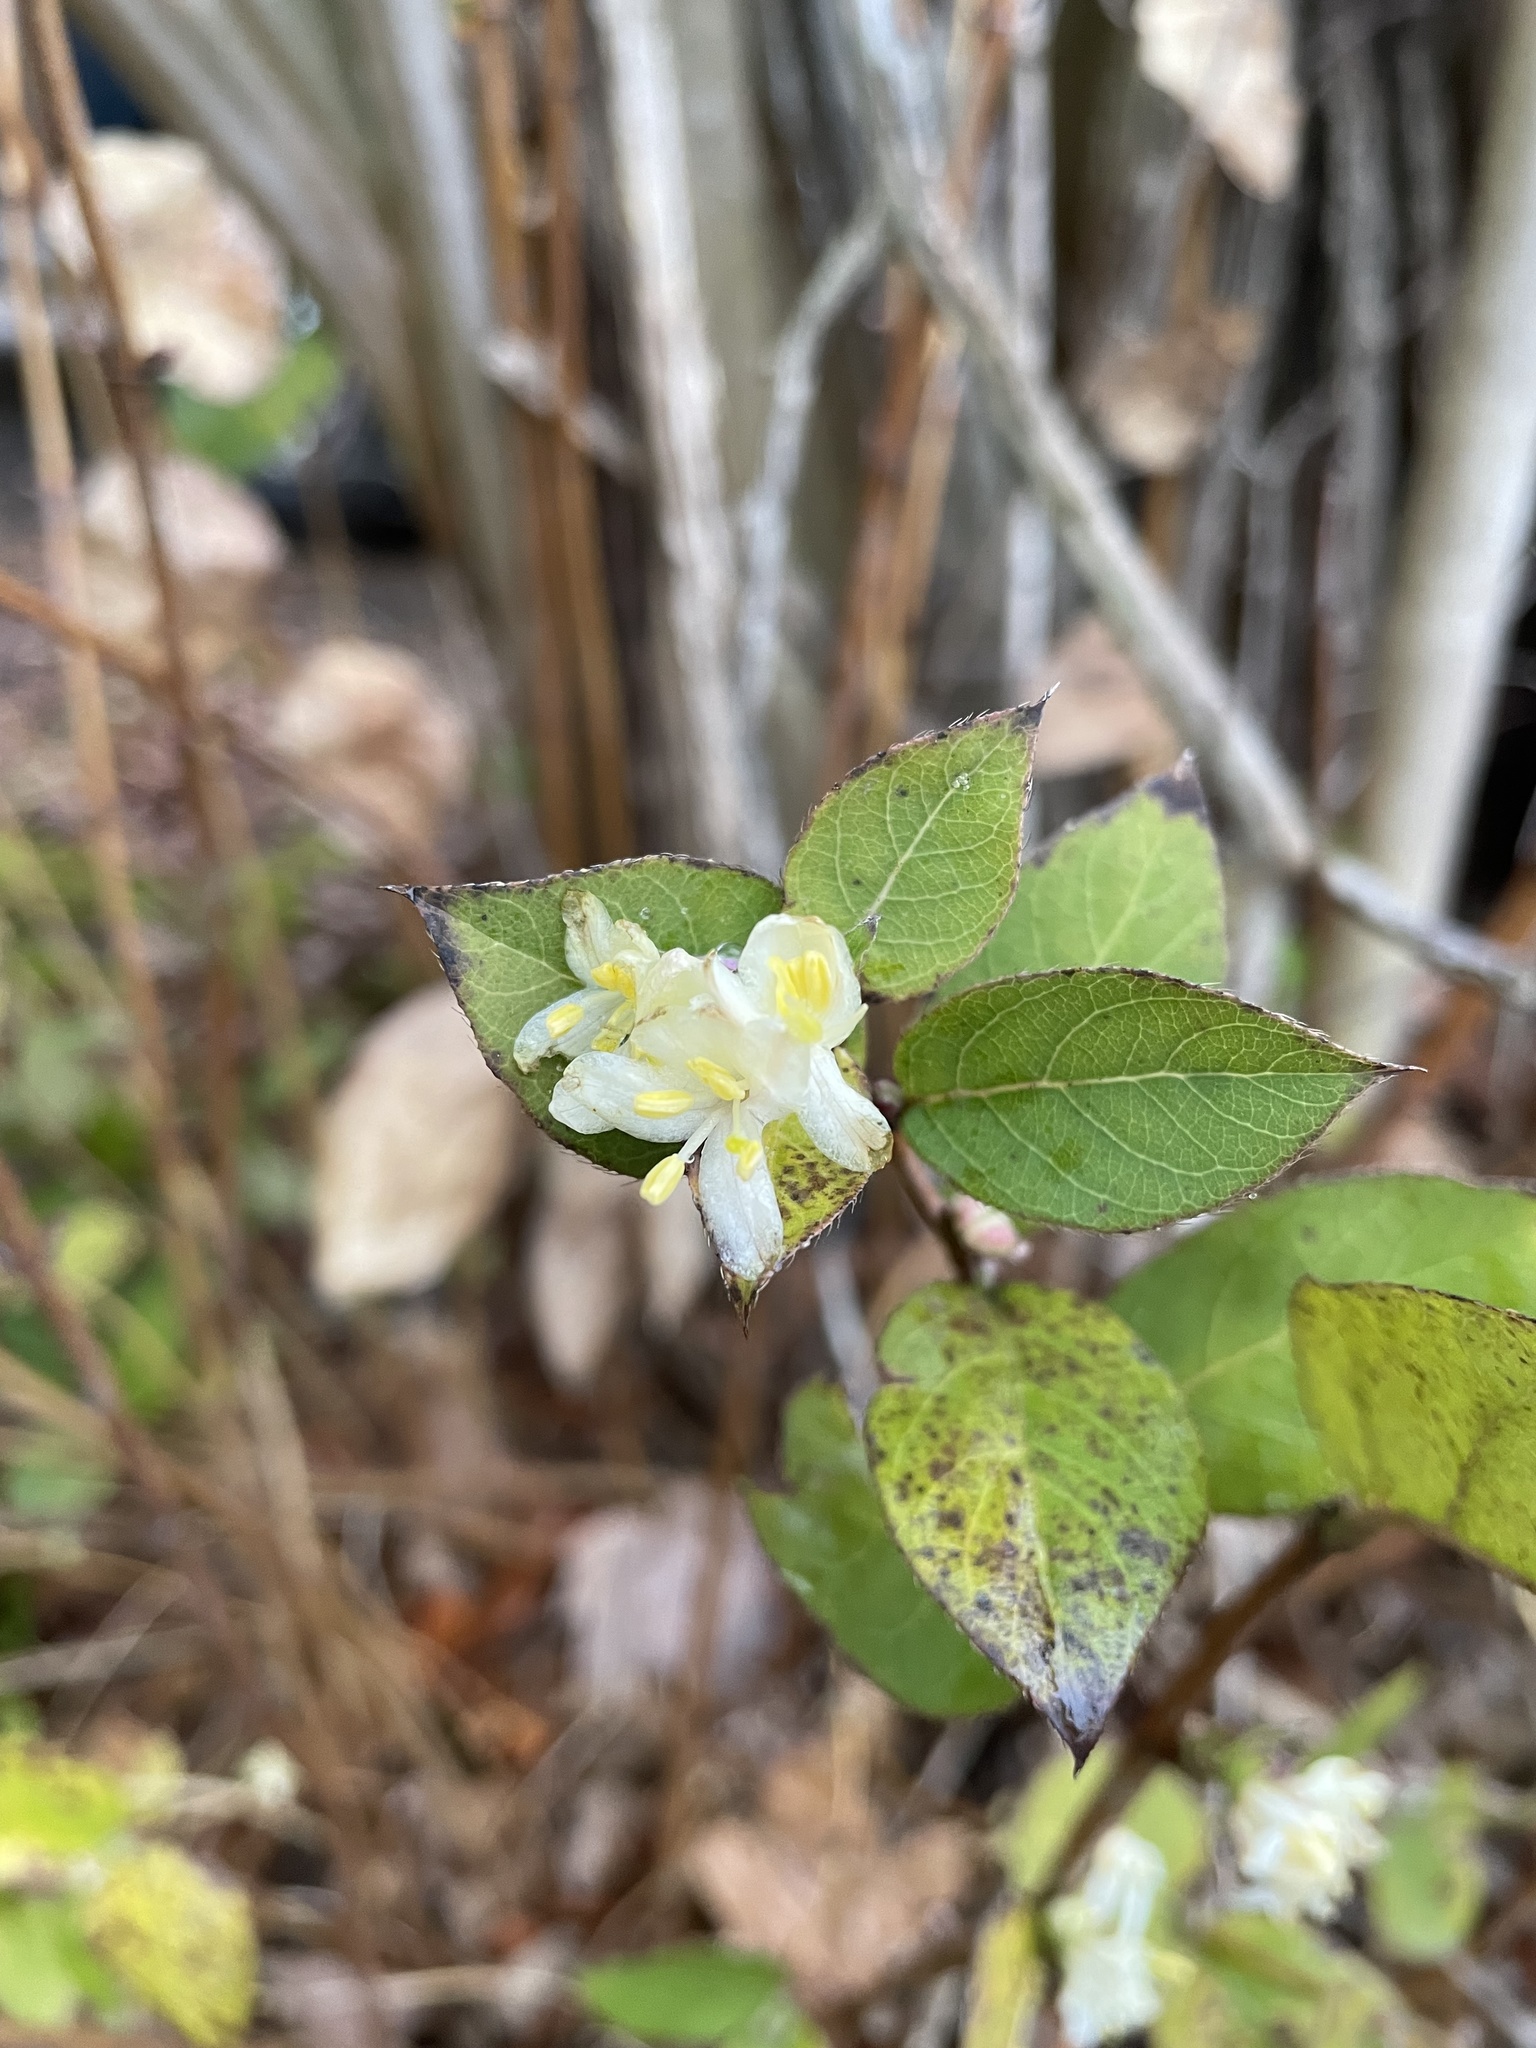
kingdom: Plantae
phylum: Tracheophyta
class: Magnoliopsida
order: Dipsacales
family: Caprifoliaceae
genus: Lonicera
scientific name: Lonicera fragrantissima
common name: Fragrant honeysuckle
